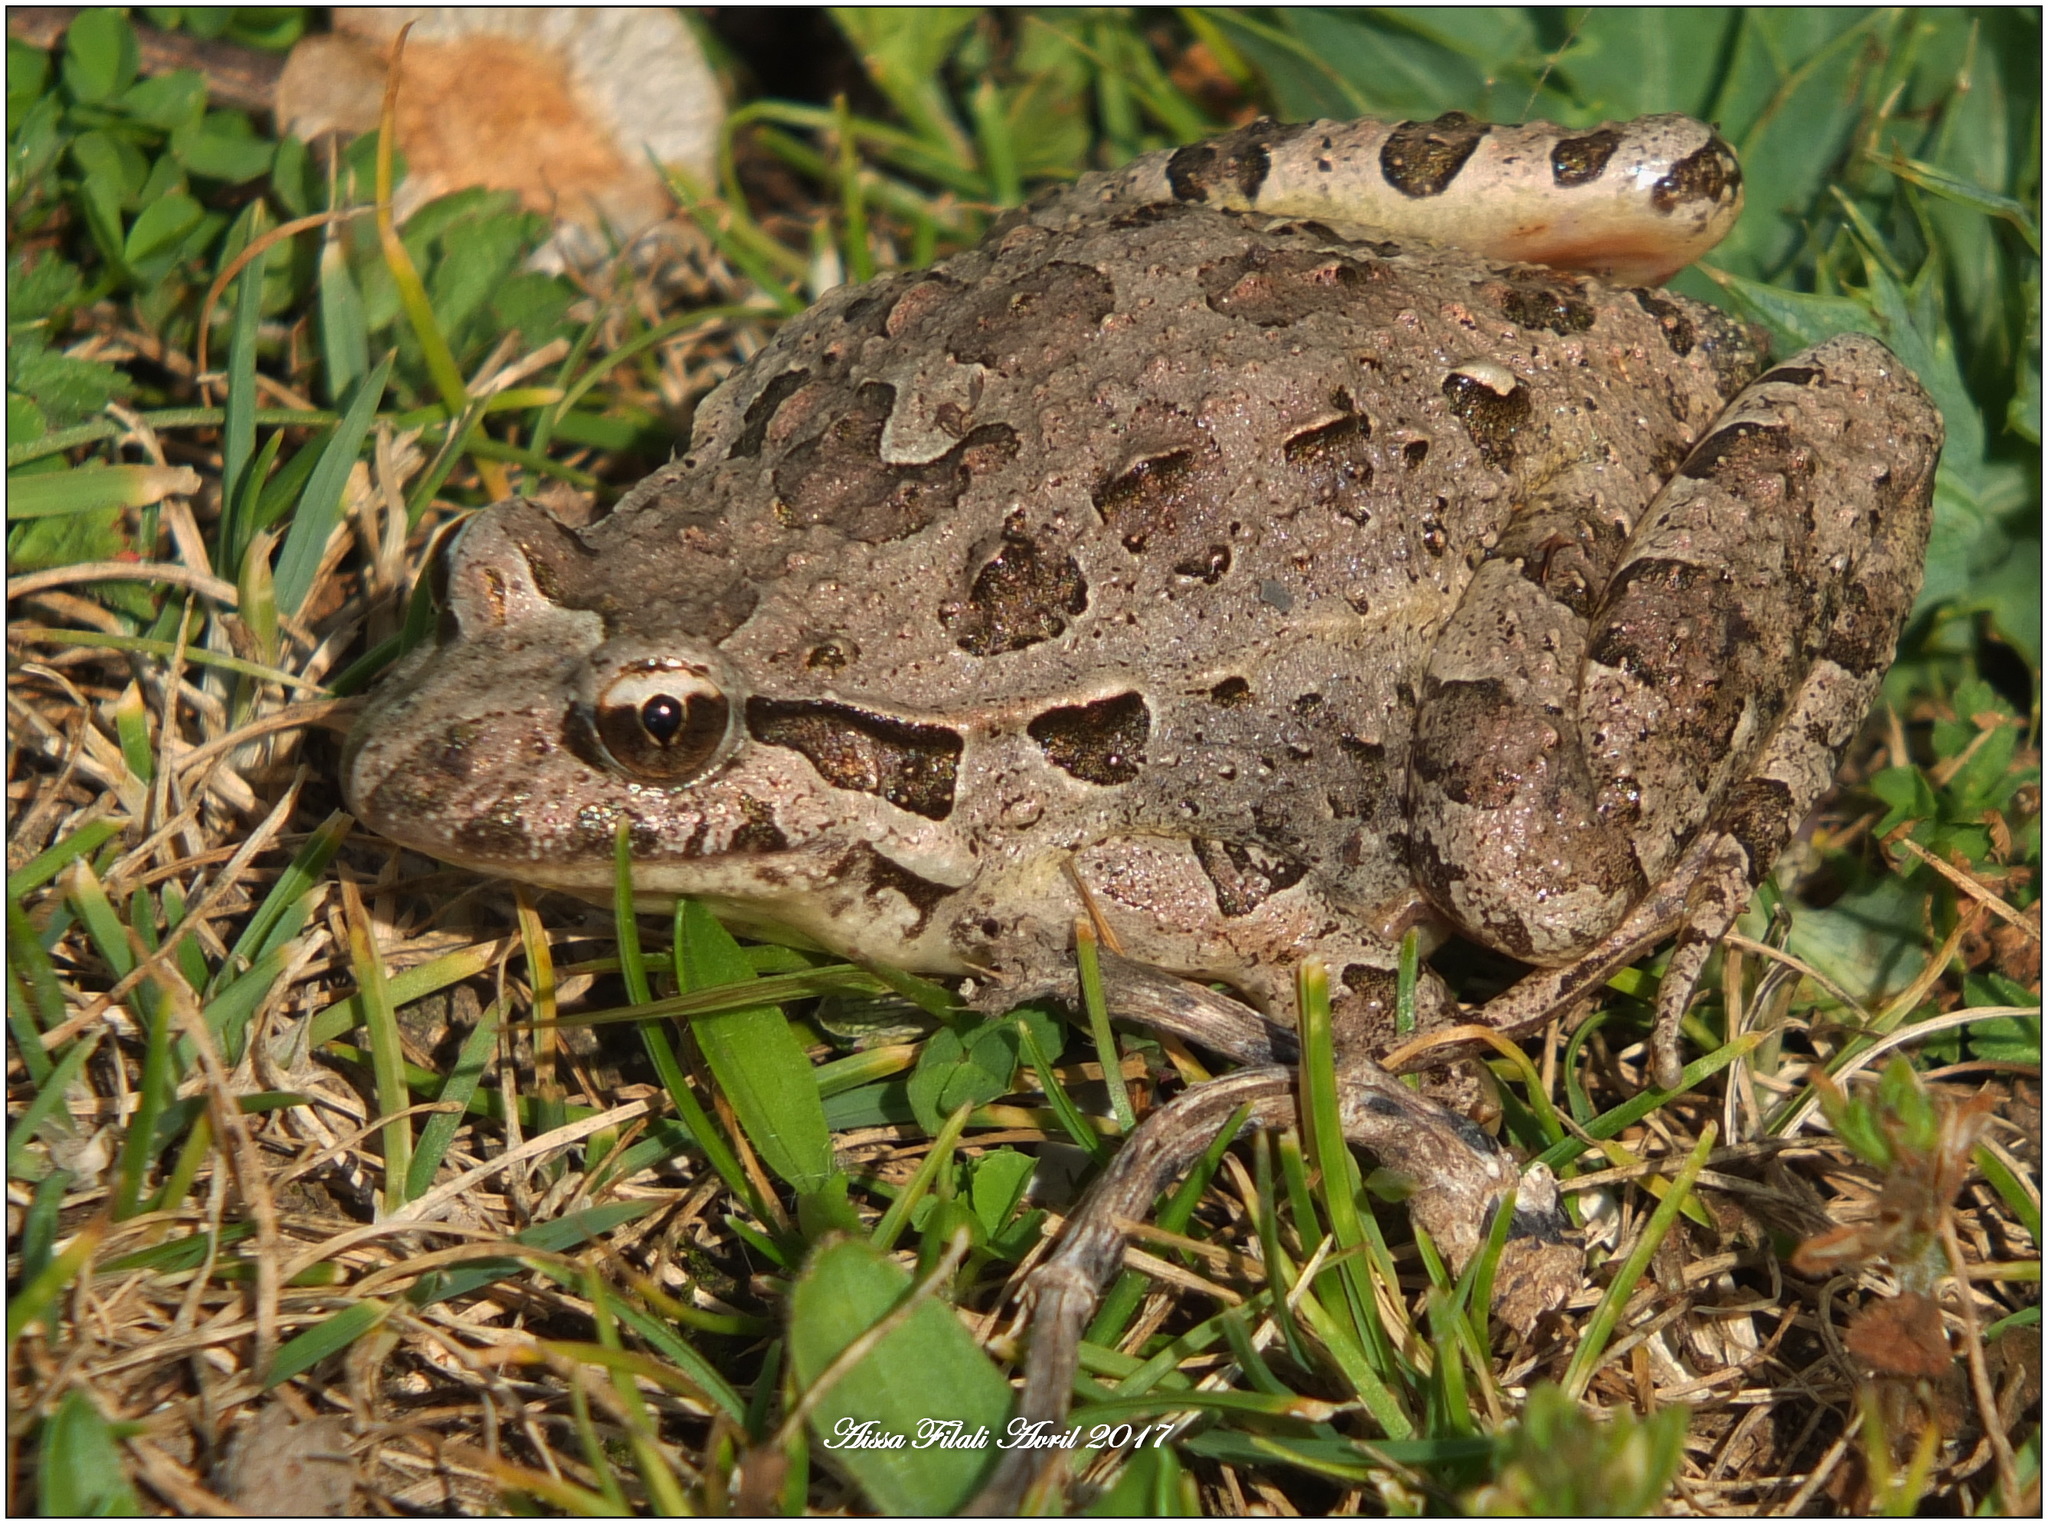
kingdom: Animalia
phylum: Chordata
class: Amphibia
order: Anura
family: Alytidae
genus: Discoglossus
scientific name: Discoglossus pictus
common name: Painted frog
